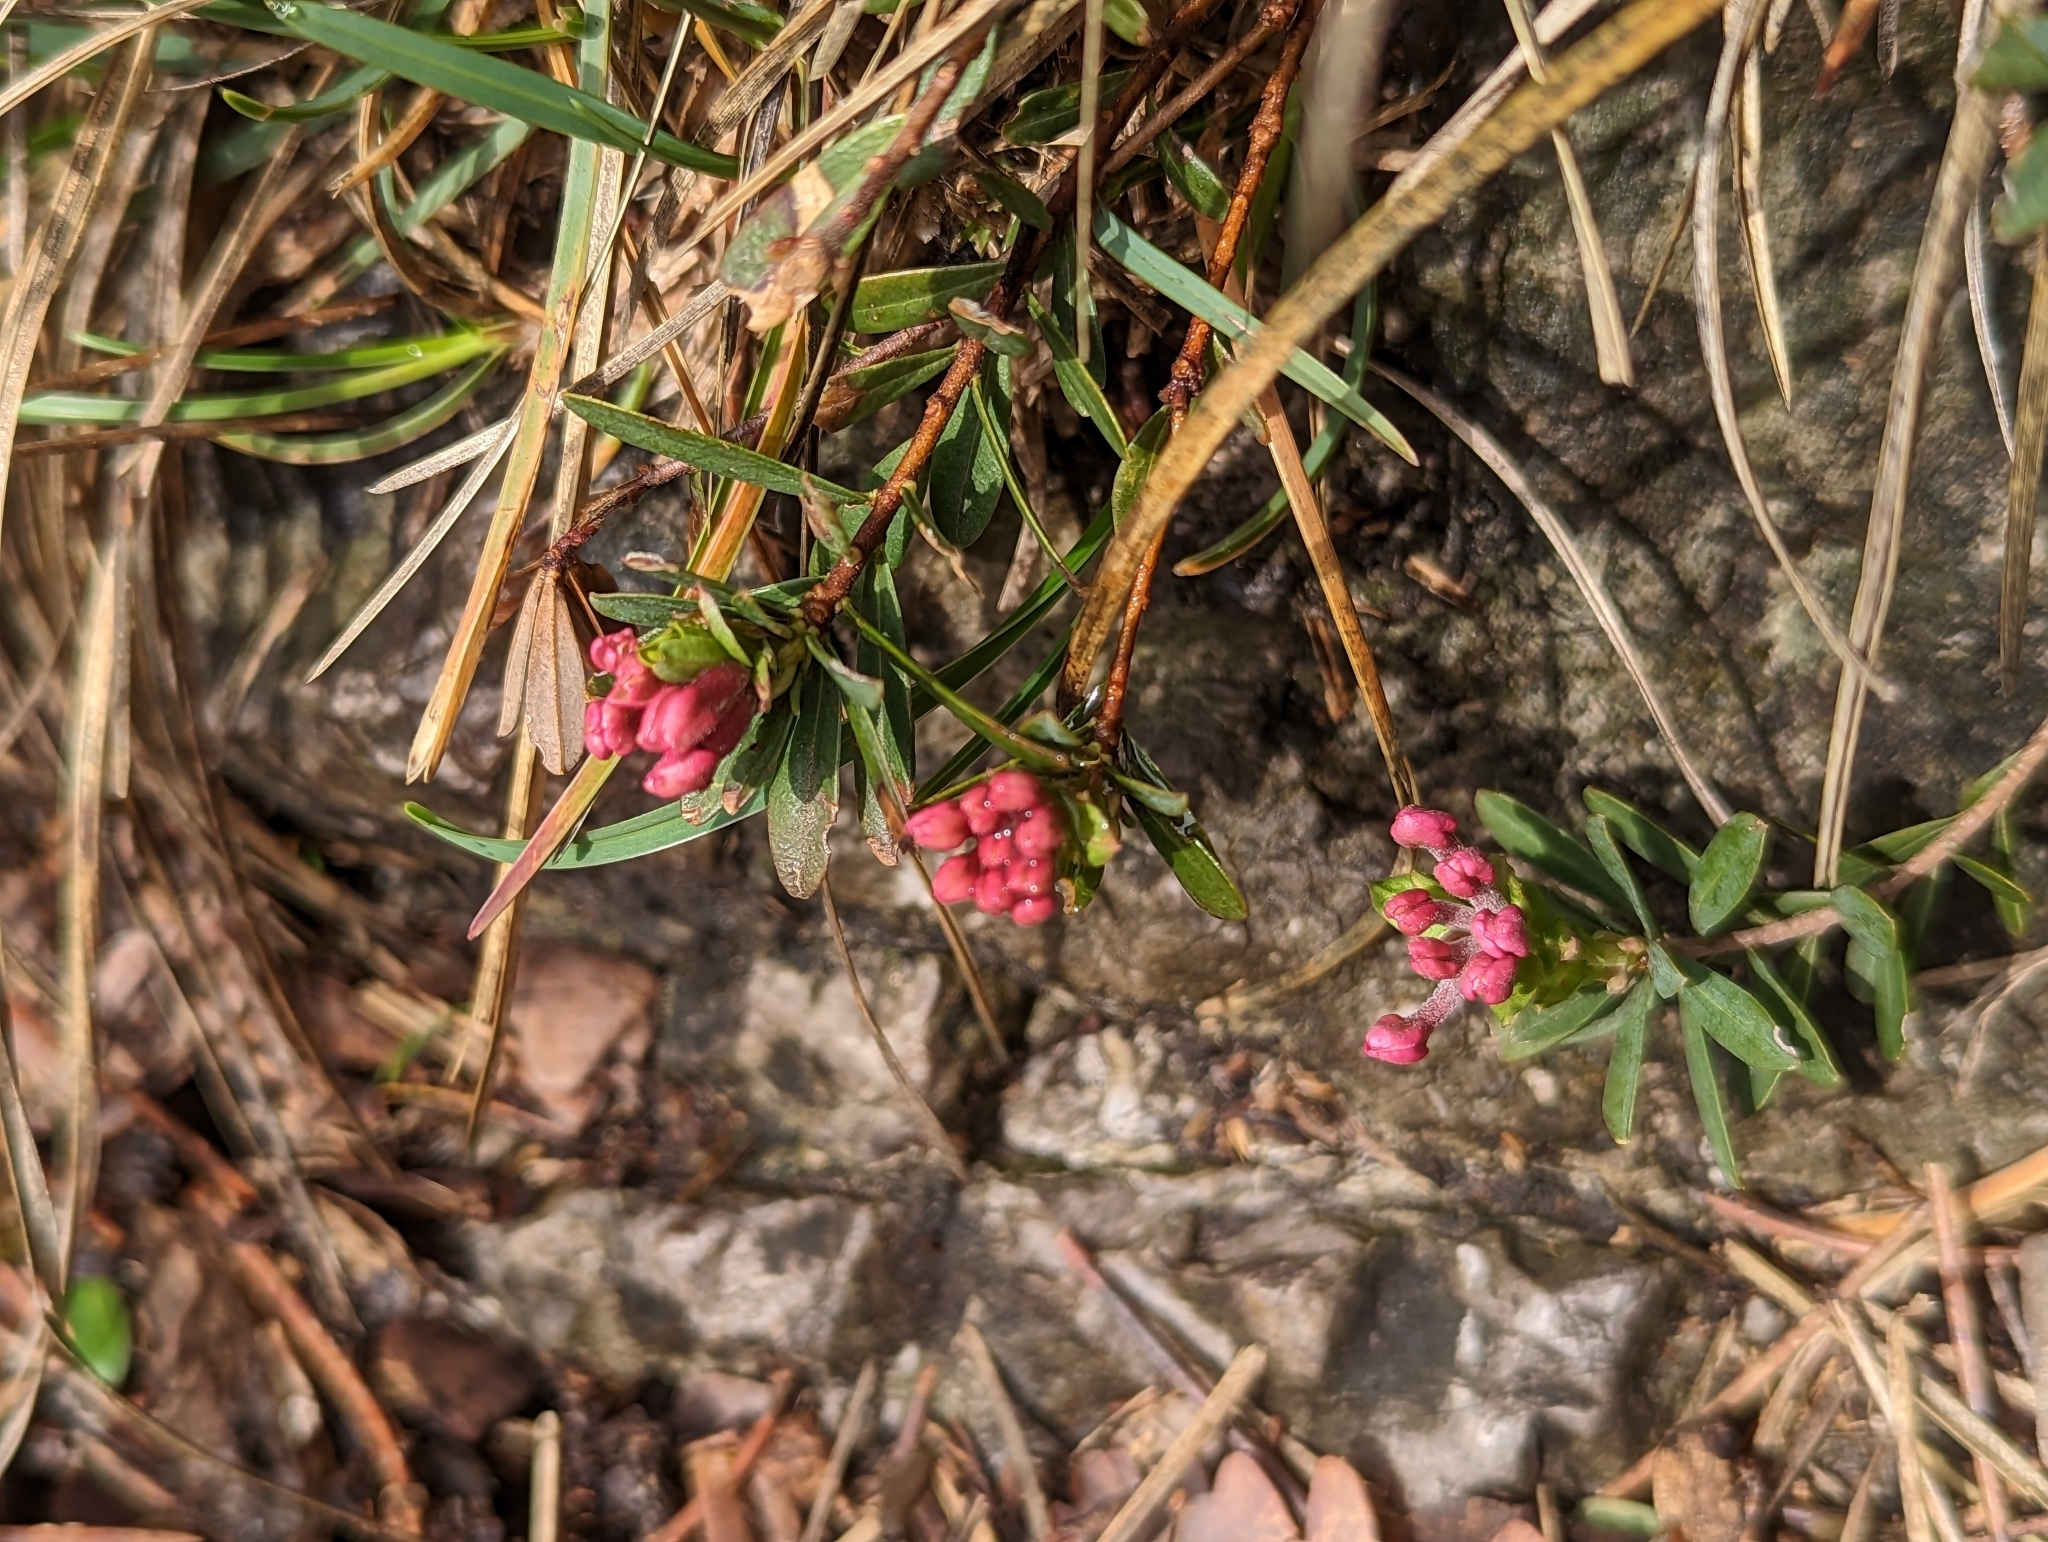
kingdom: Plantae
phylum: Tracheophyta
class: Magnoliopsida
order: Malvales
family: Thymelaeaceae
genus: Daphne
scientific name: Daphne cneorum
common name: Garland-flower
